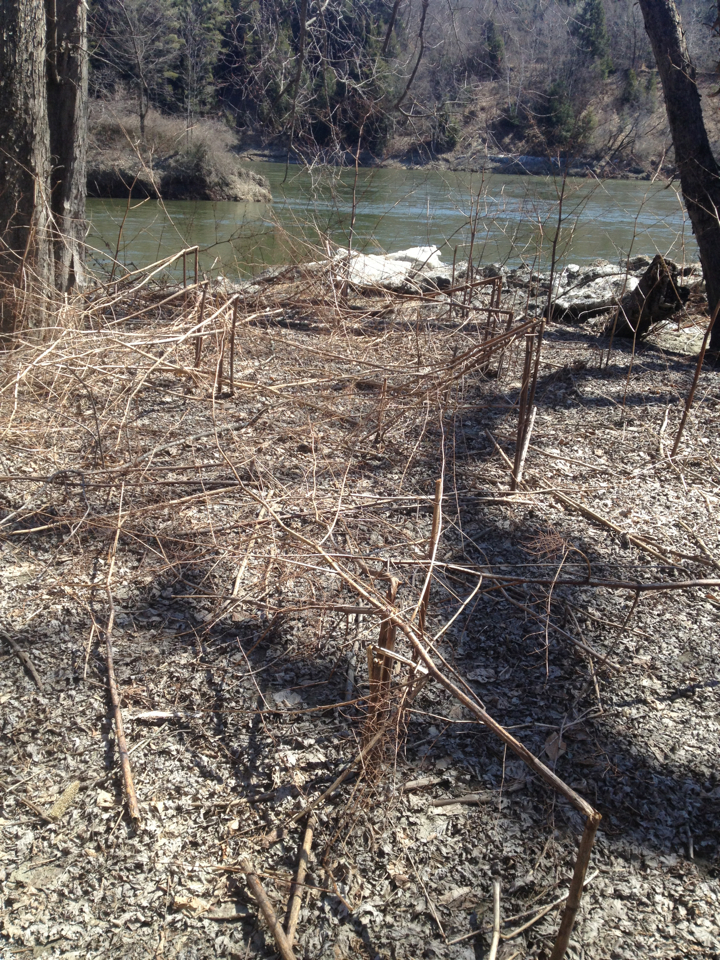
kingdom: Plantae
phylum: Tracheophyta
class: Magnoliopsida
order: Caryophyllales
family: Polygonaceae
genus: Reynoutria
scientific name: Reynoutria japonica
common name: Japanese knotweed
